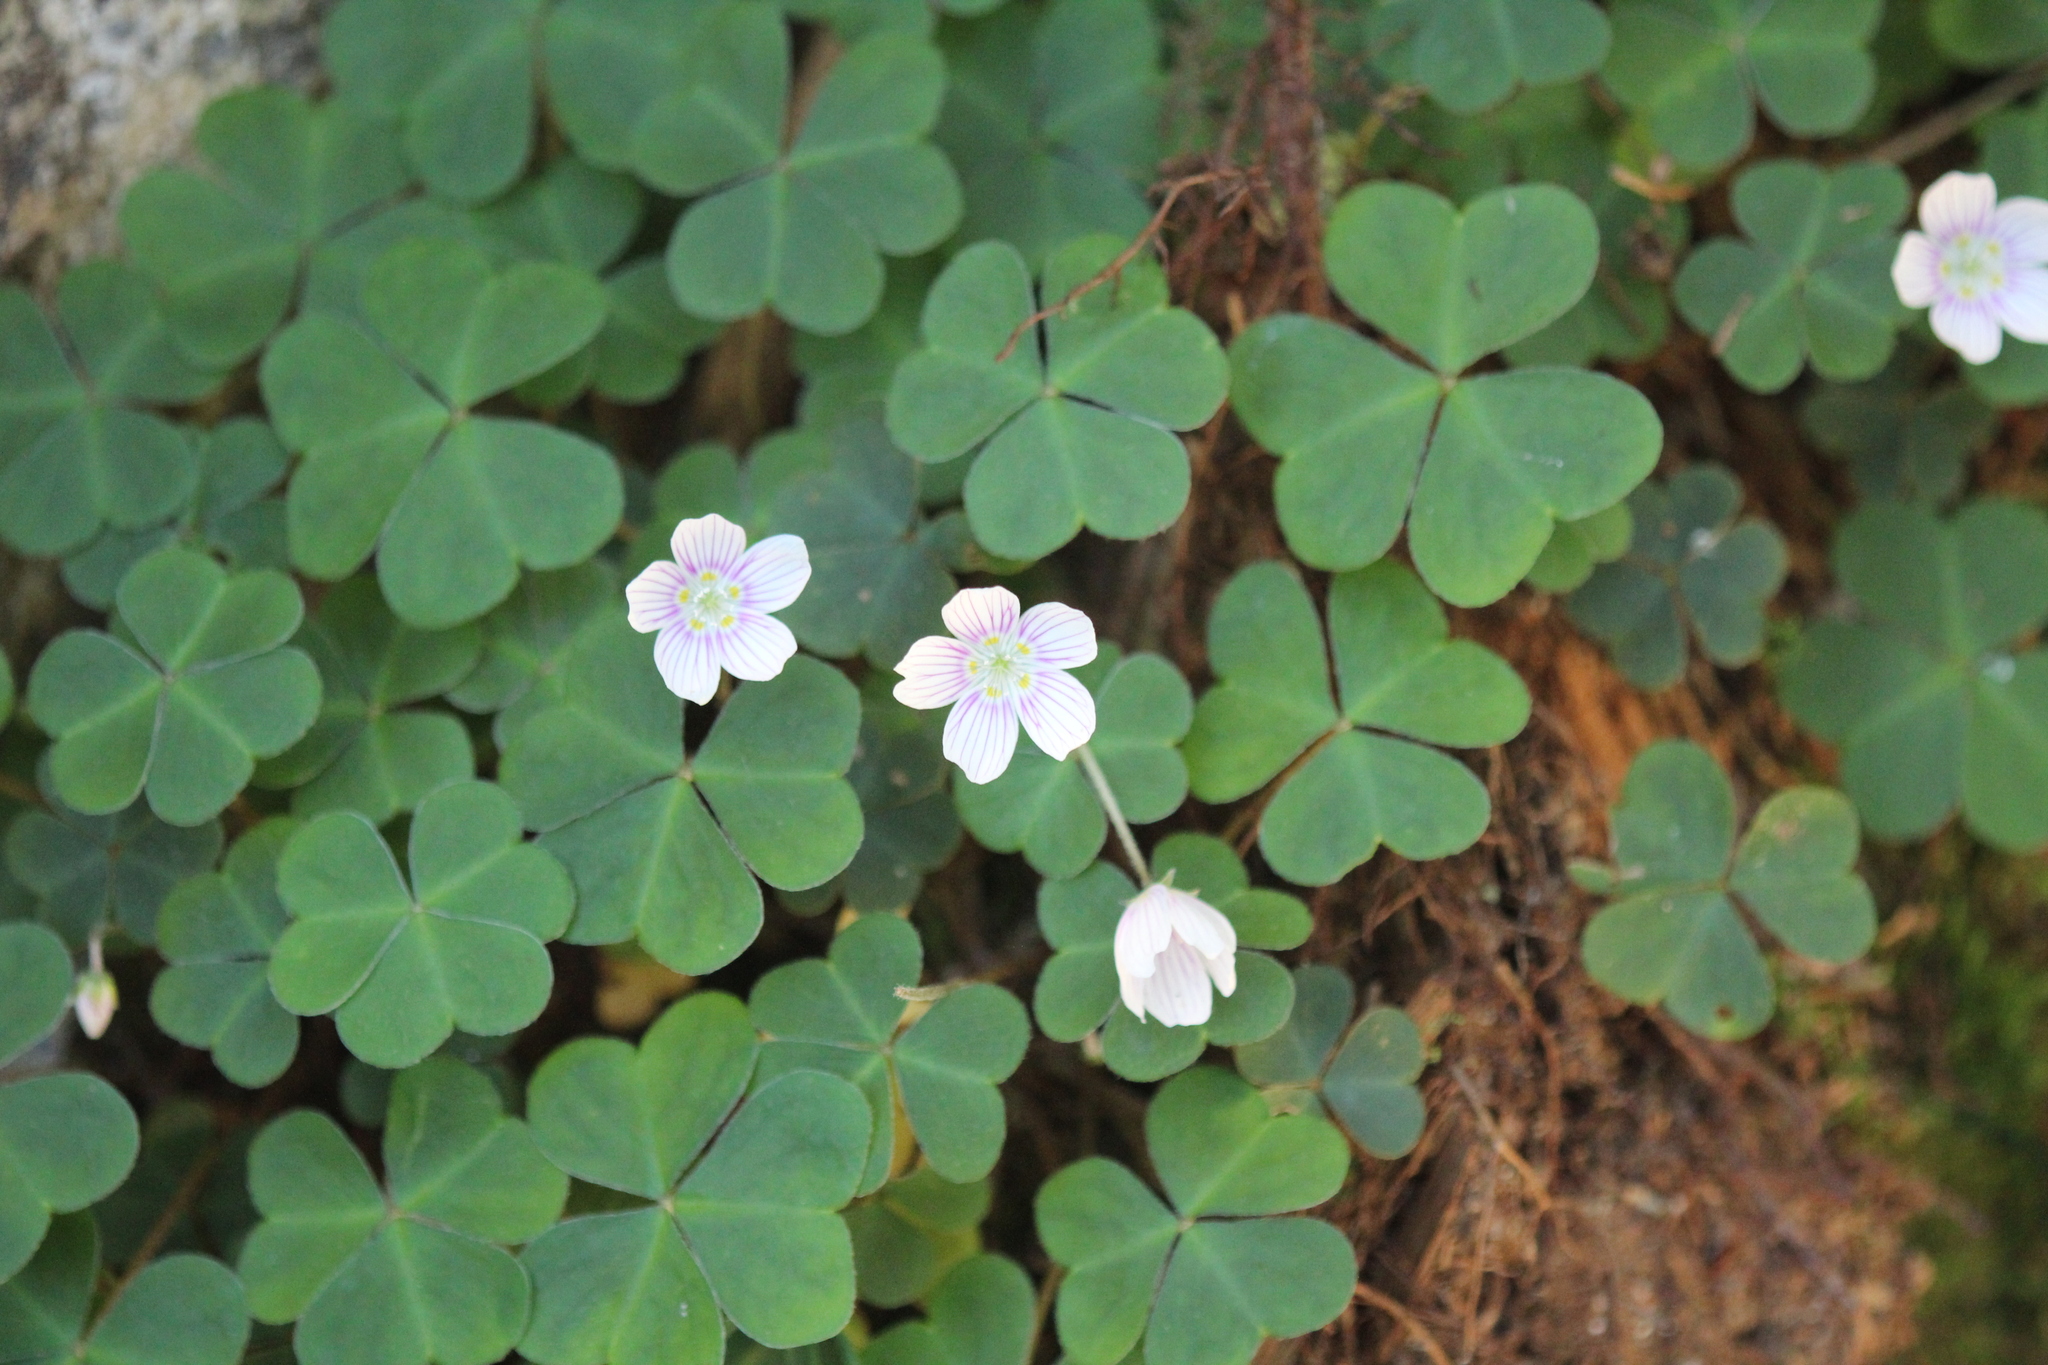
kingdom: Plantae
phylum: Tracheophyta
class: Magnoliopsida
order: Oxalidales
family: Oxalidaceae
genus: Oxalis
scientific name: Oxalis montana
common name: American wood-sorrel
